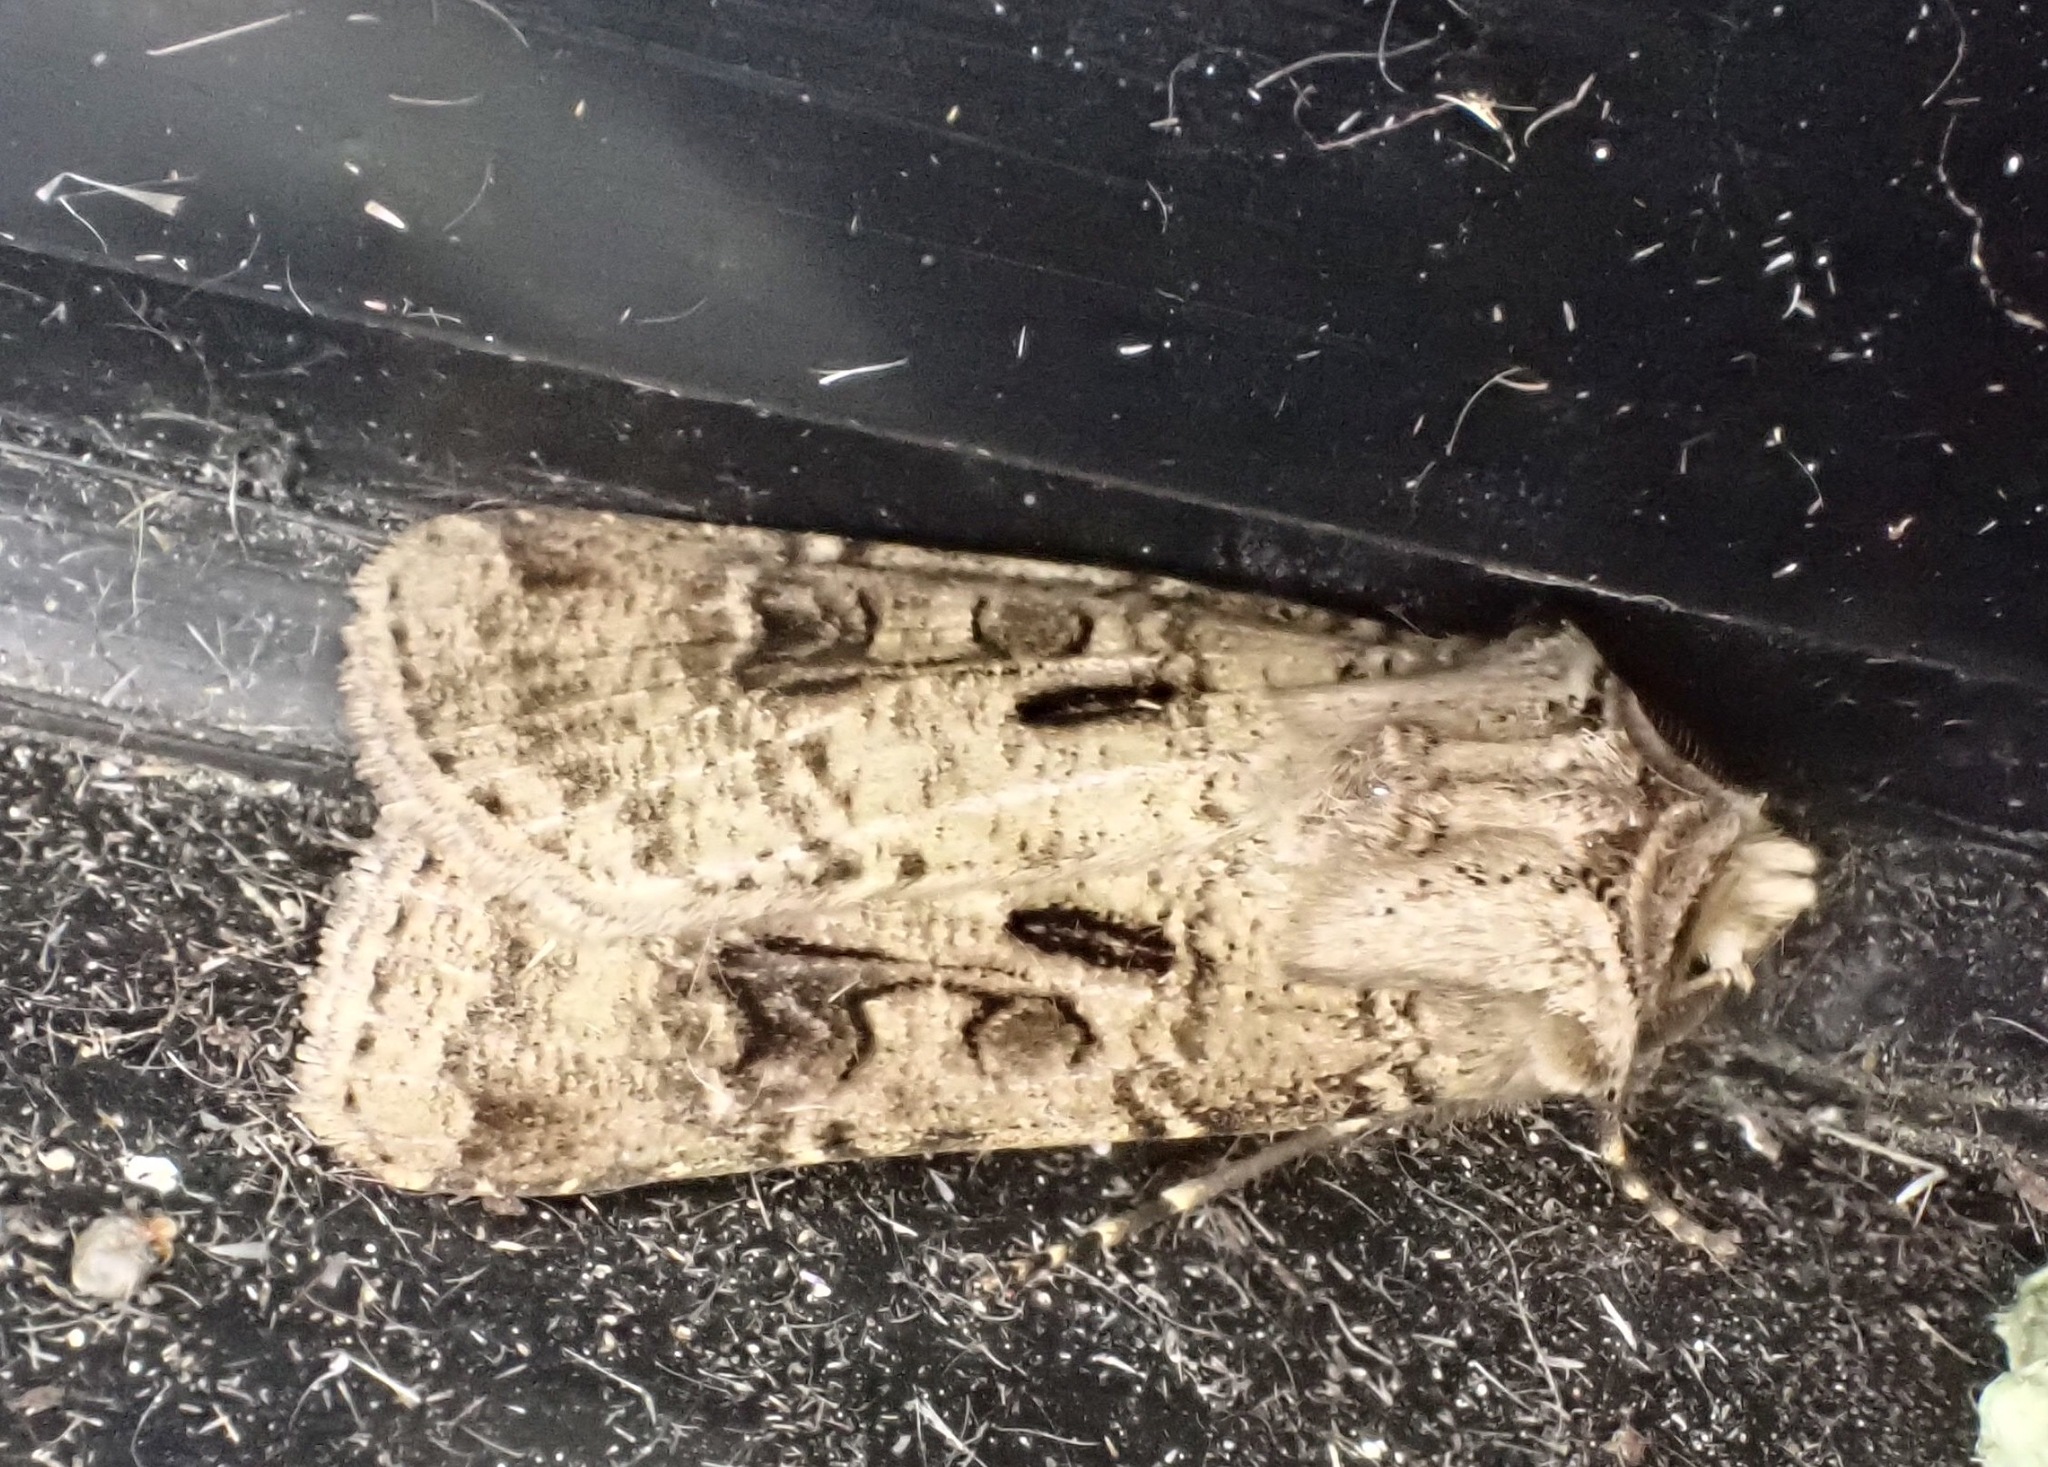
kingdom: Animalia
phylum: Arthropoda
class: Insecta
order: Lepidoptera
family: Noctuidae
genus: Agrotis
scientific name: Agrotis clavis
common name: Heart and club
